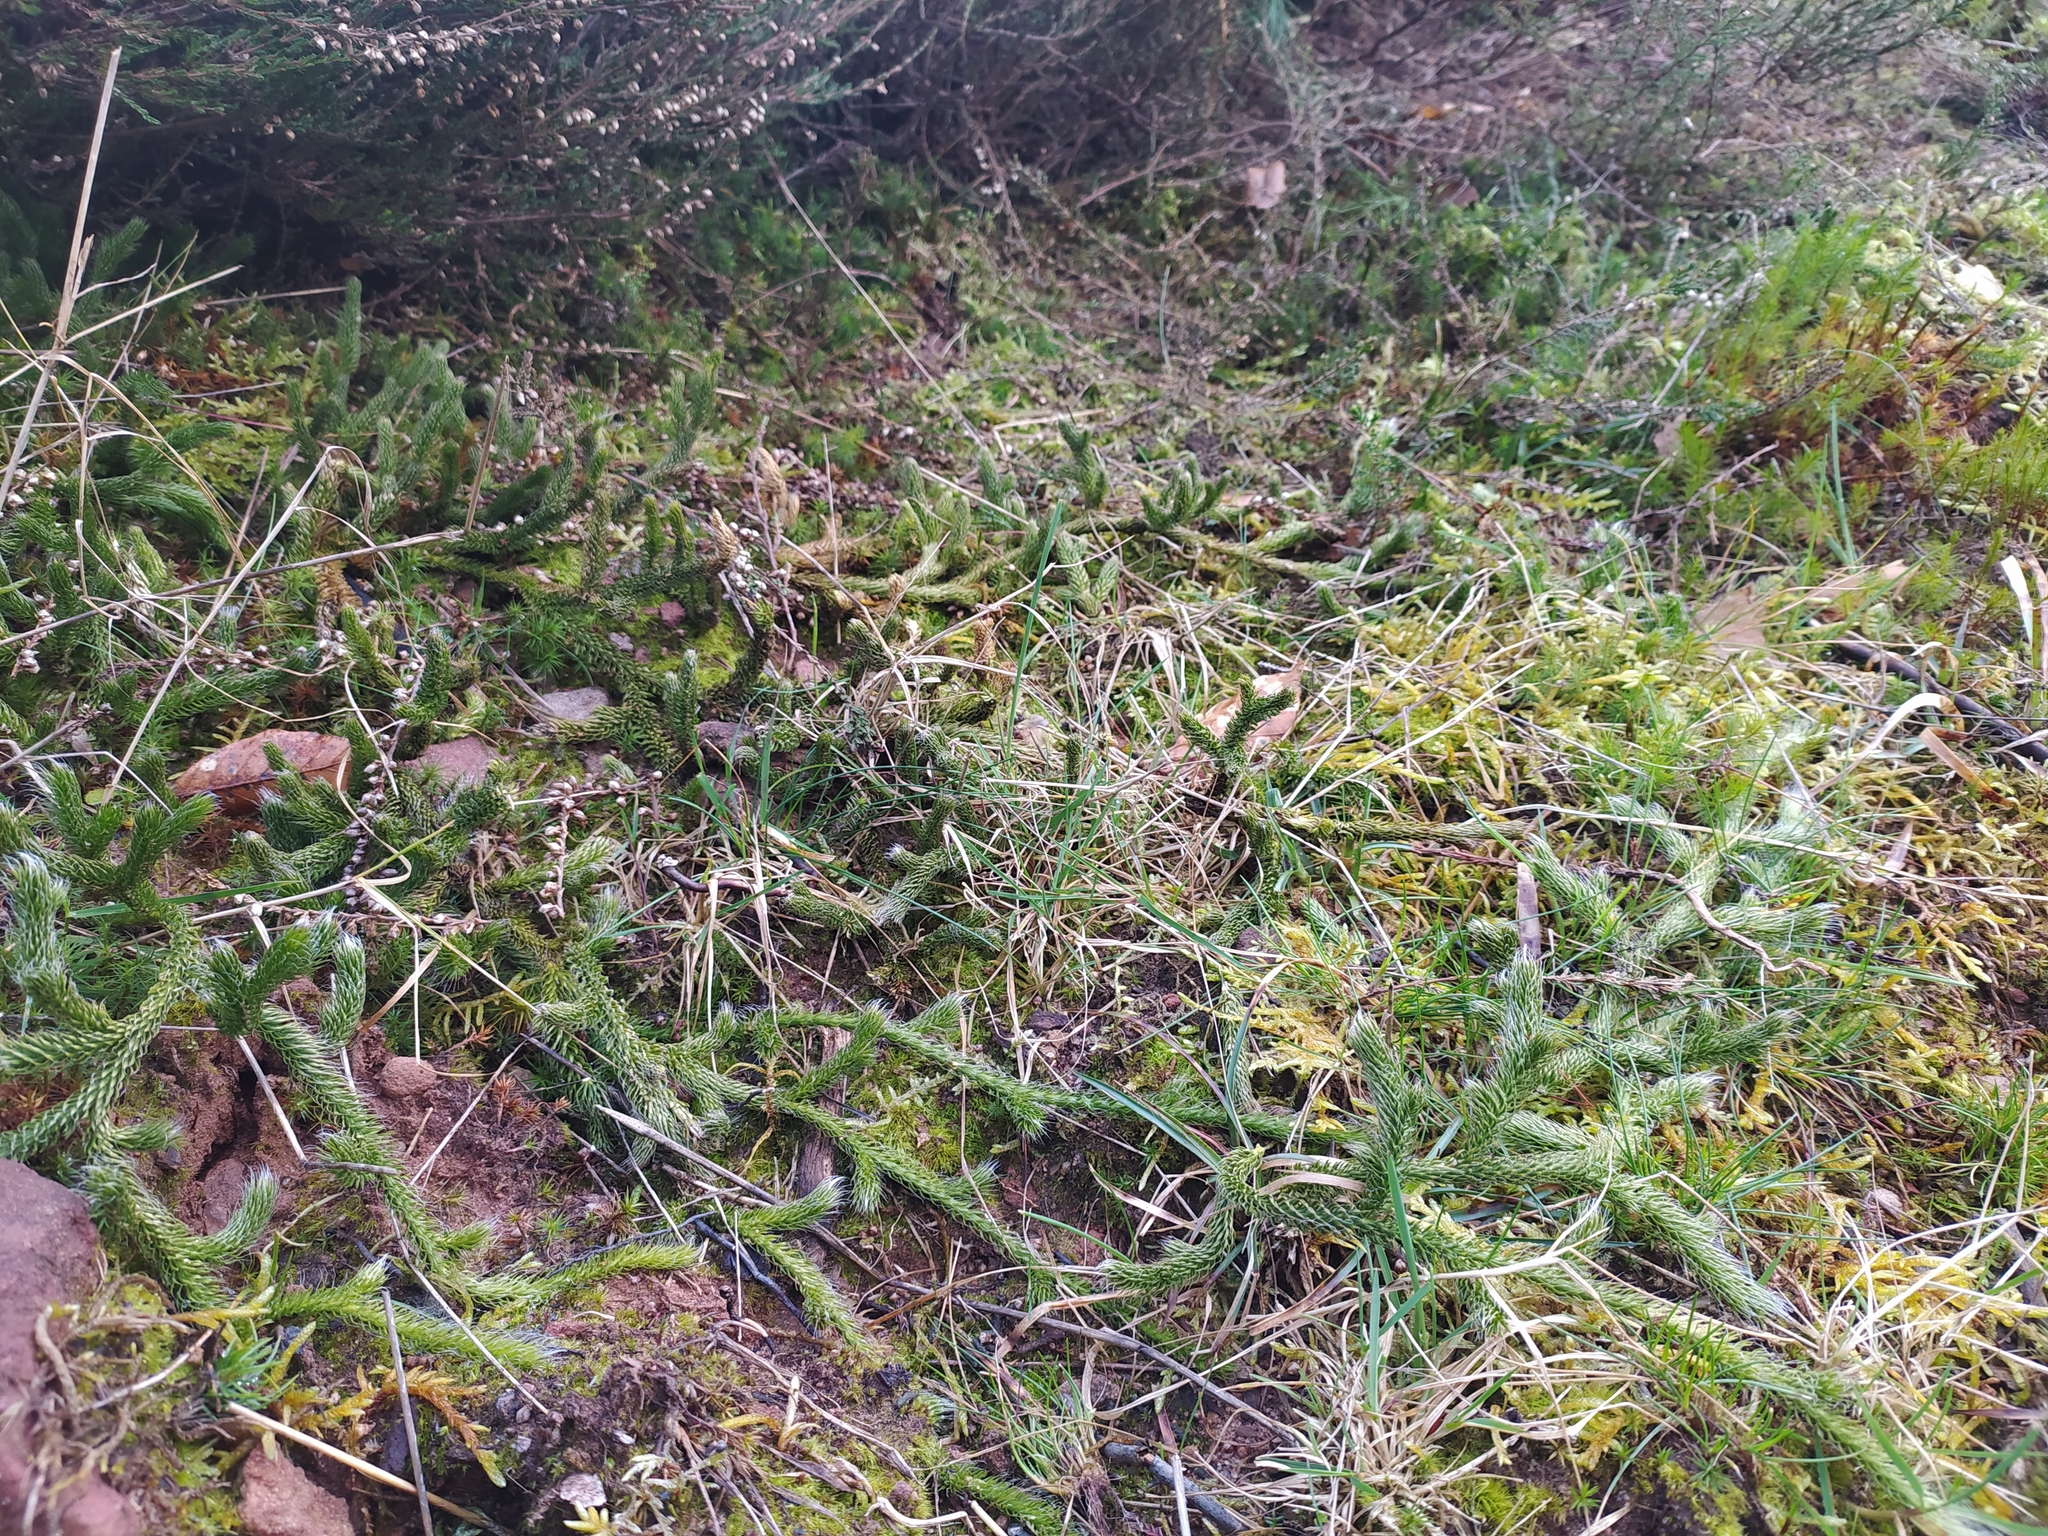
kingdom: Plantae
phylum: Tracheophyta
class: Lycopodiopsida
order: Lycopodiales
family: Lycopodiaceae
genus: Lycopodium
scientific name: Lycopodium clavatum
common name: Stag's-horn clubmoss
